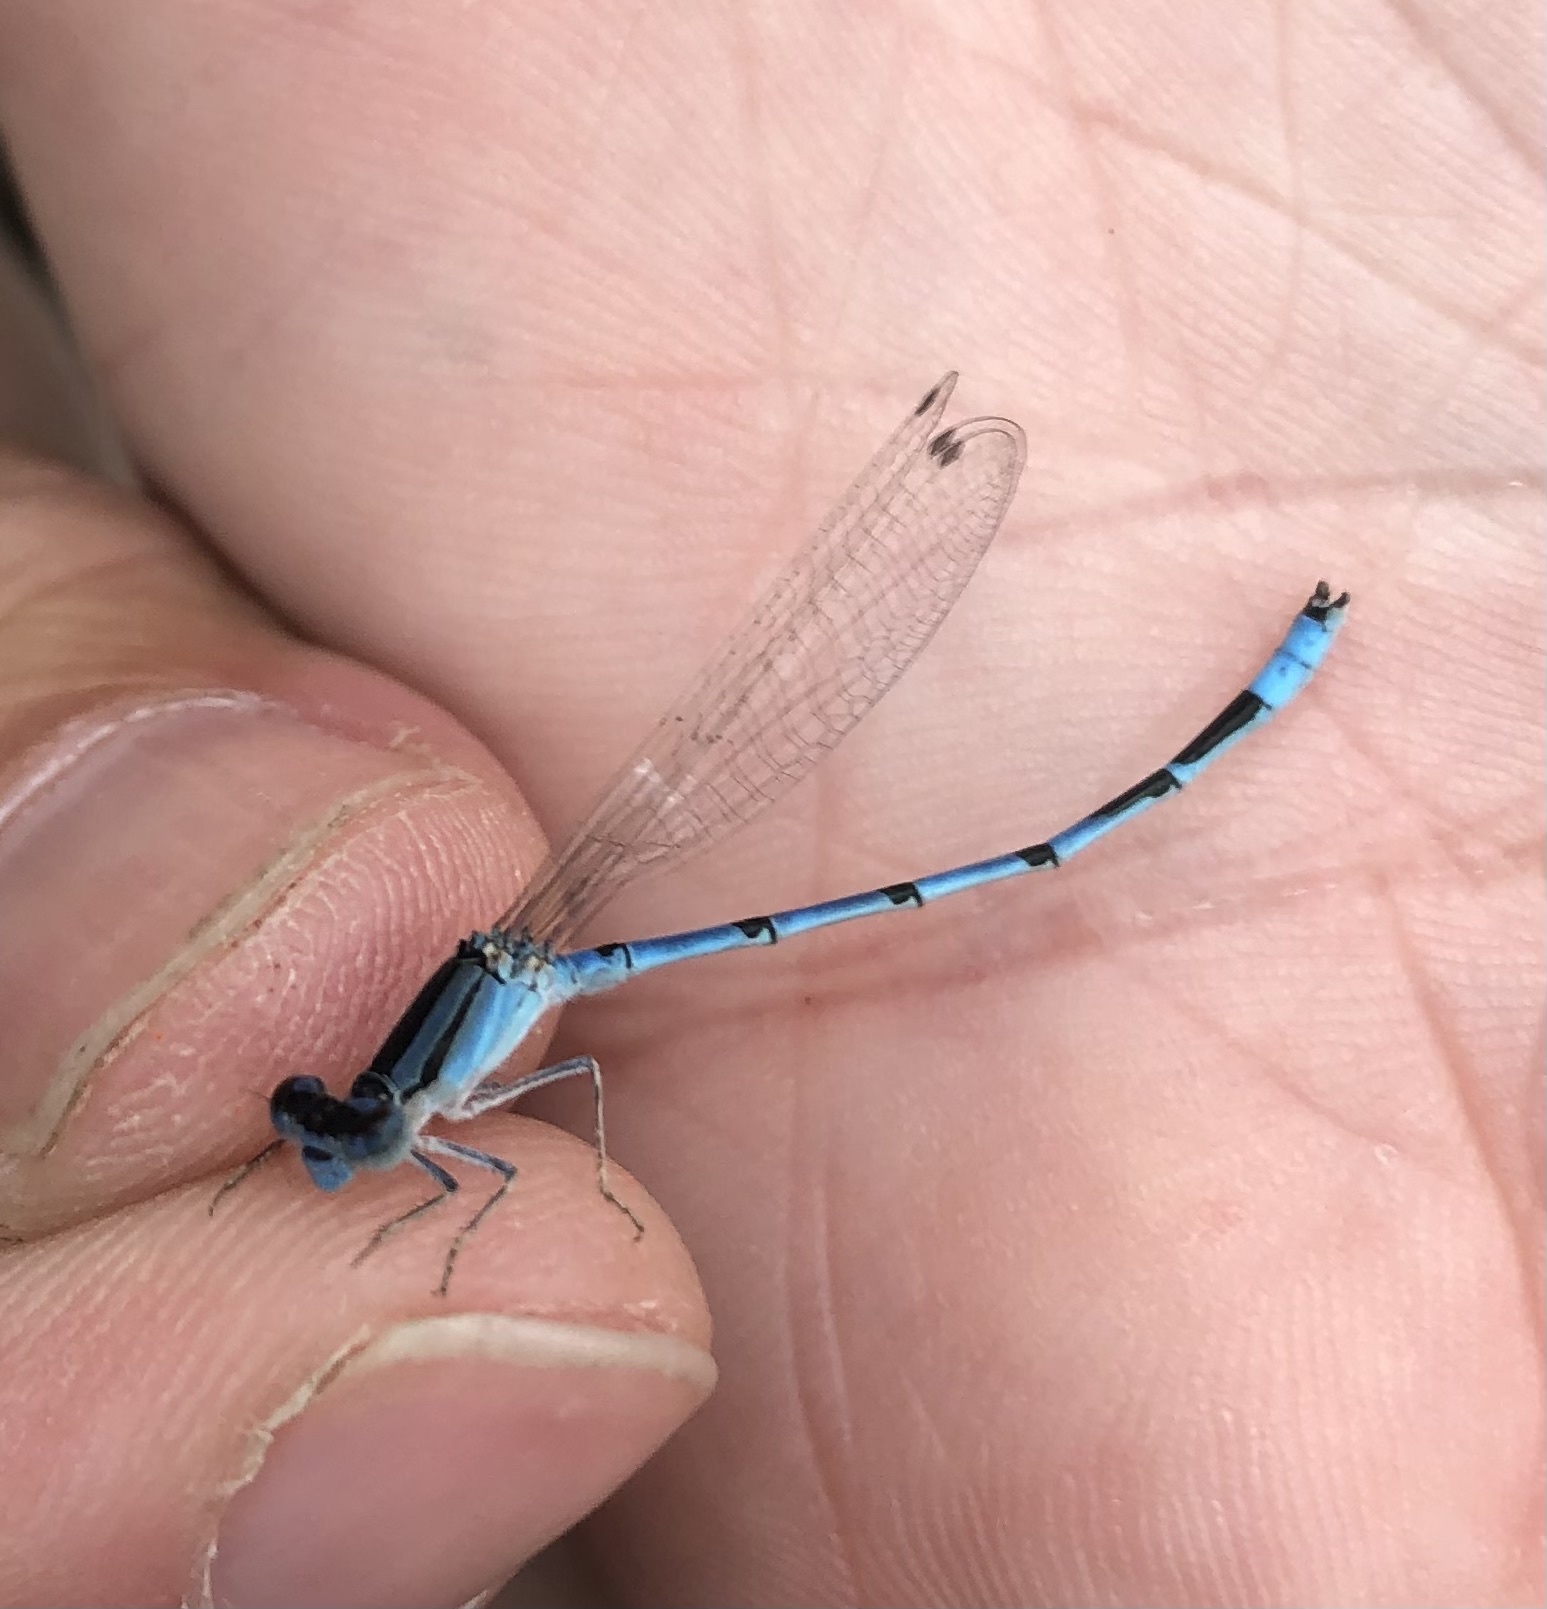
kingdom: Animalia
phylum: Arthropoda
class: Insecta
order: Odonata
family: Coenagrionidae
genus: Enallagma
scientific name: Enallagma civile
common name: Damselfly
